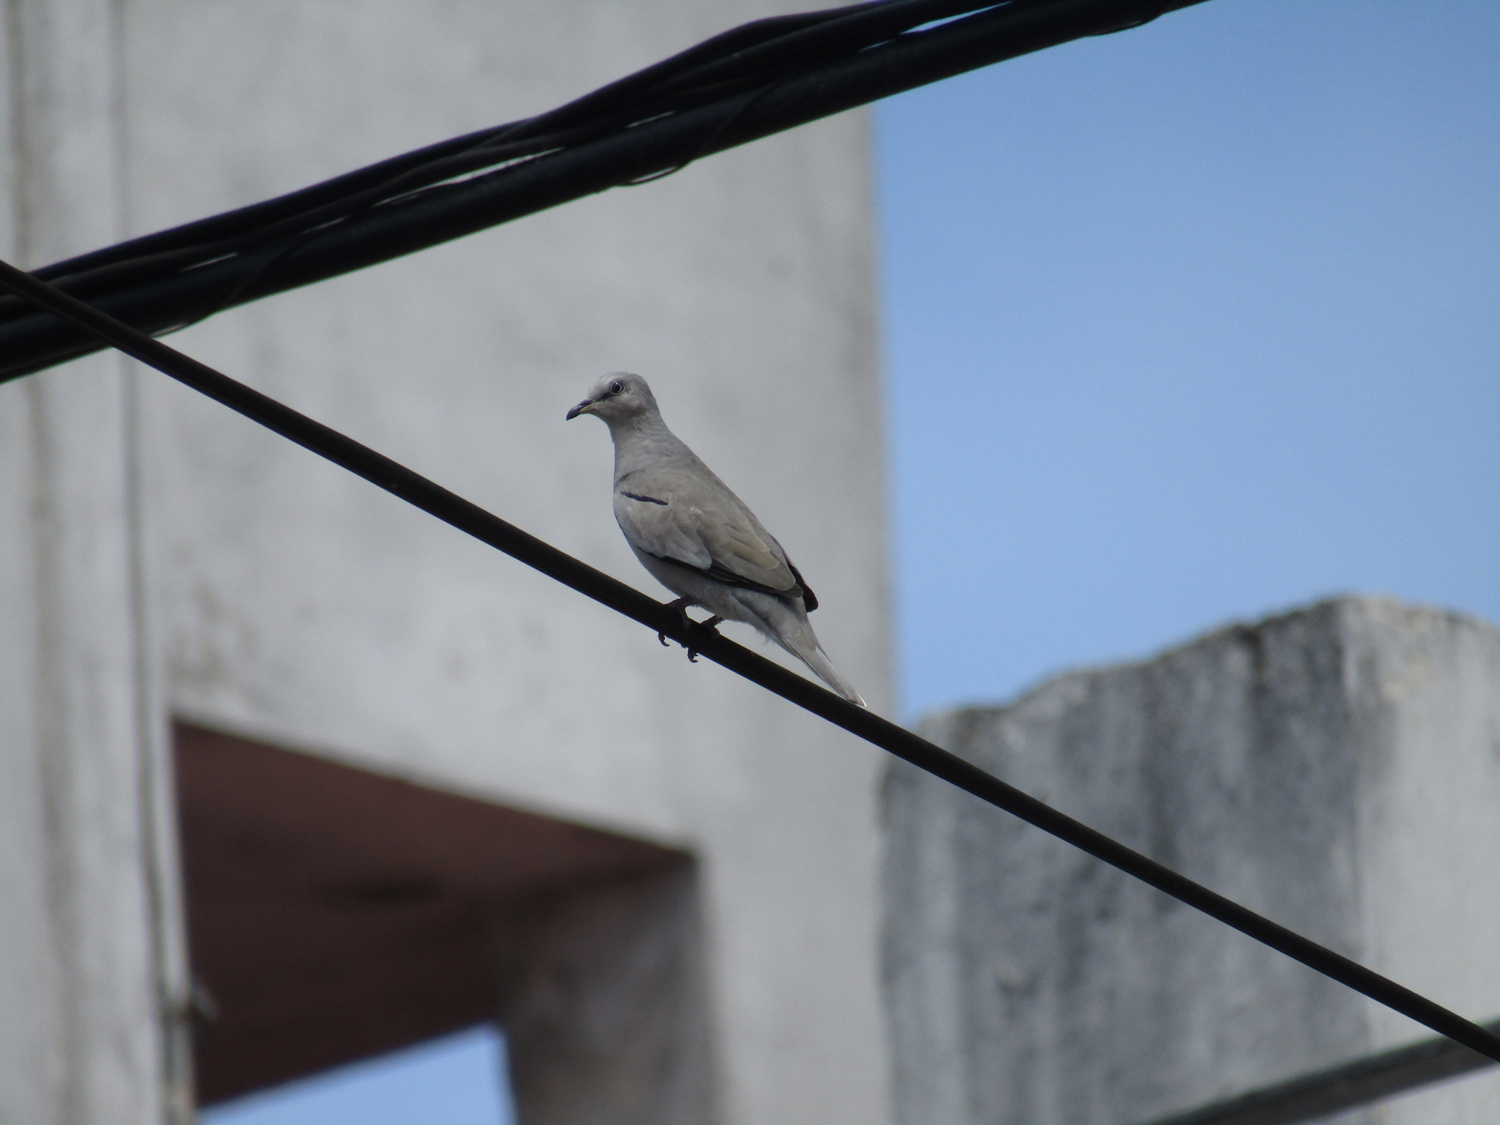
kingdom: Animalia
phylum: Chordata
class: Aves
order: Columbiformes
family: Columbidae
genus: Columbina
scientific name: Columbina picui
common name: Picui ground dove
